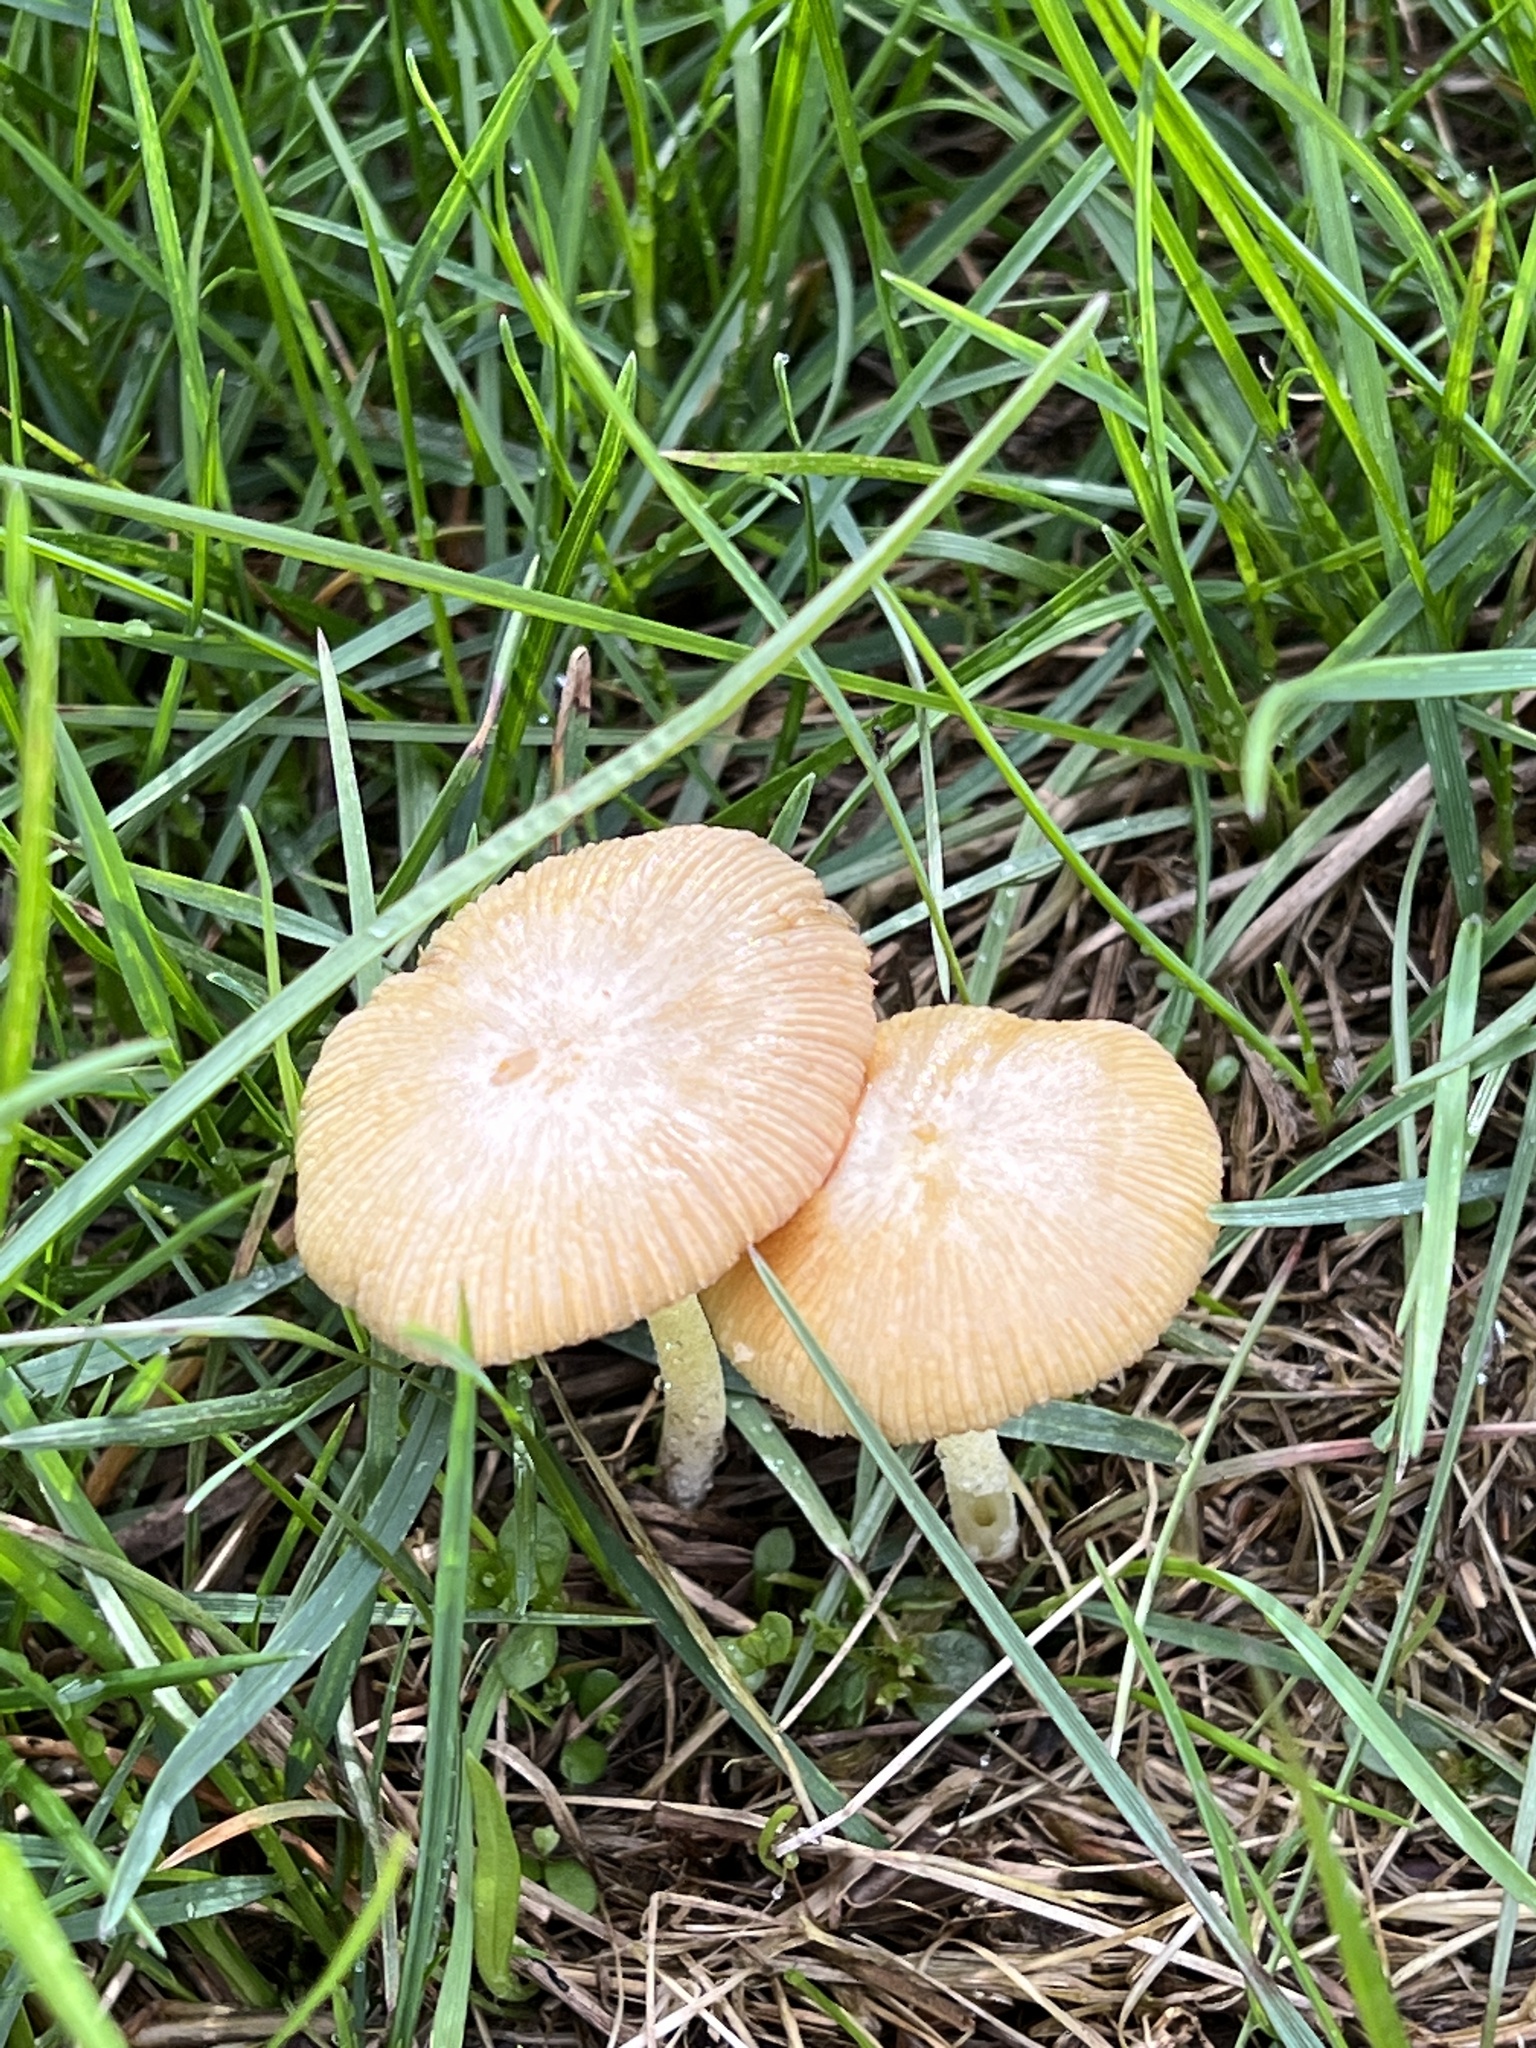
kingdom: Fungi
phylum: Basidiomycota
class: Agaricomycetes
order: Agaricales
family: Marasmiaceae
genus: Marasmius
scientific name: Marasmius oreades
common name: Fairy ring champignon
